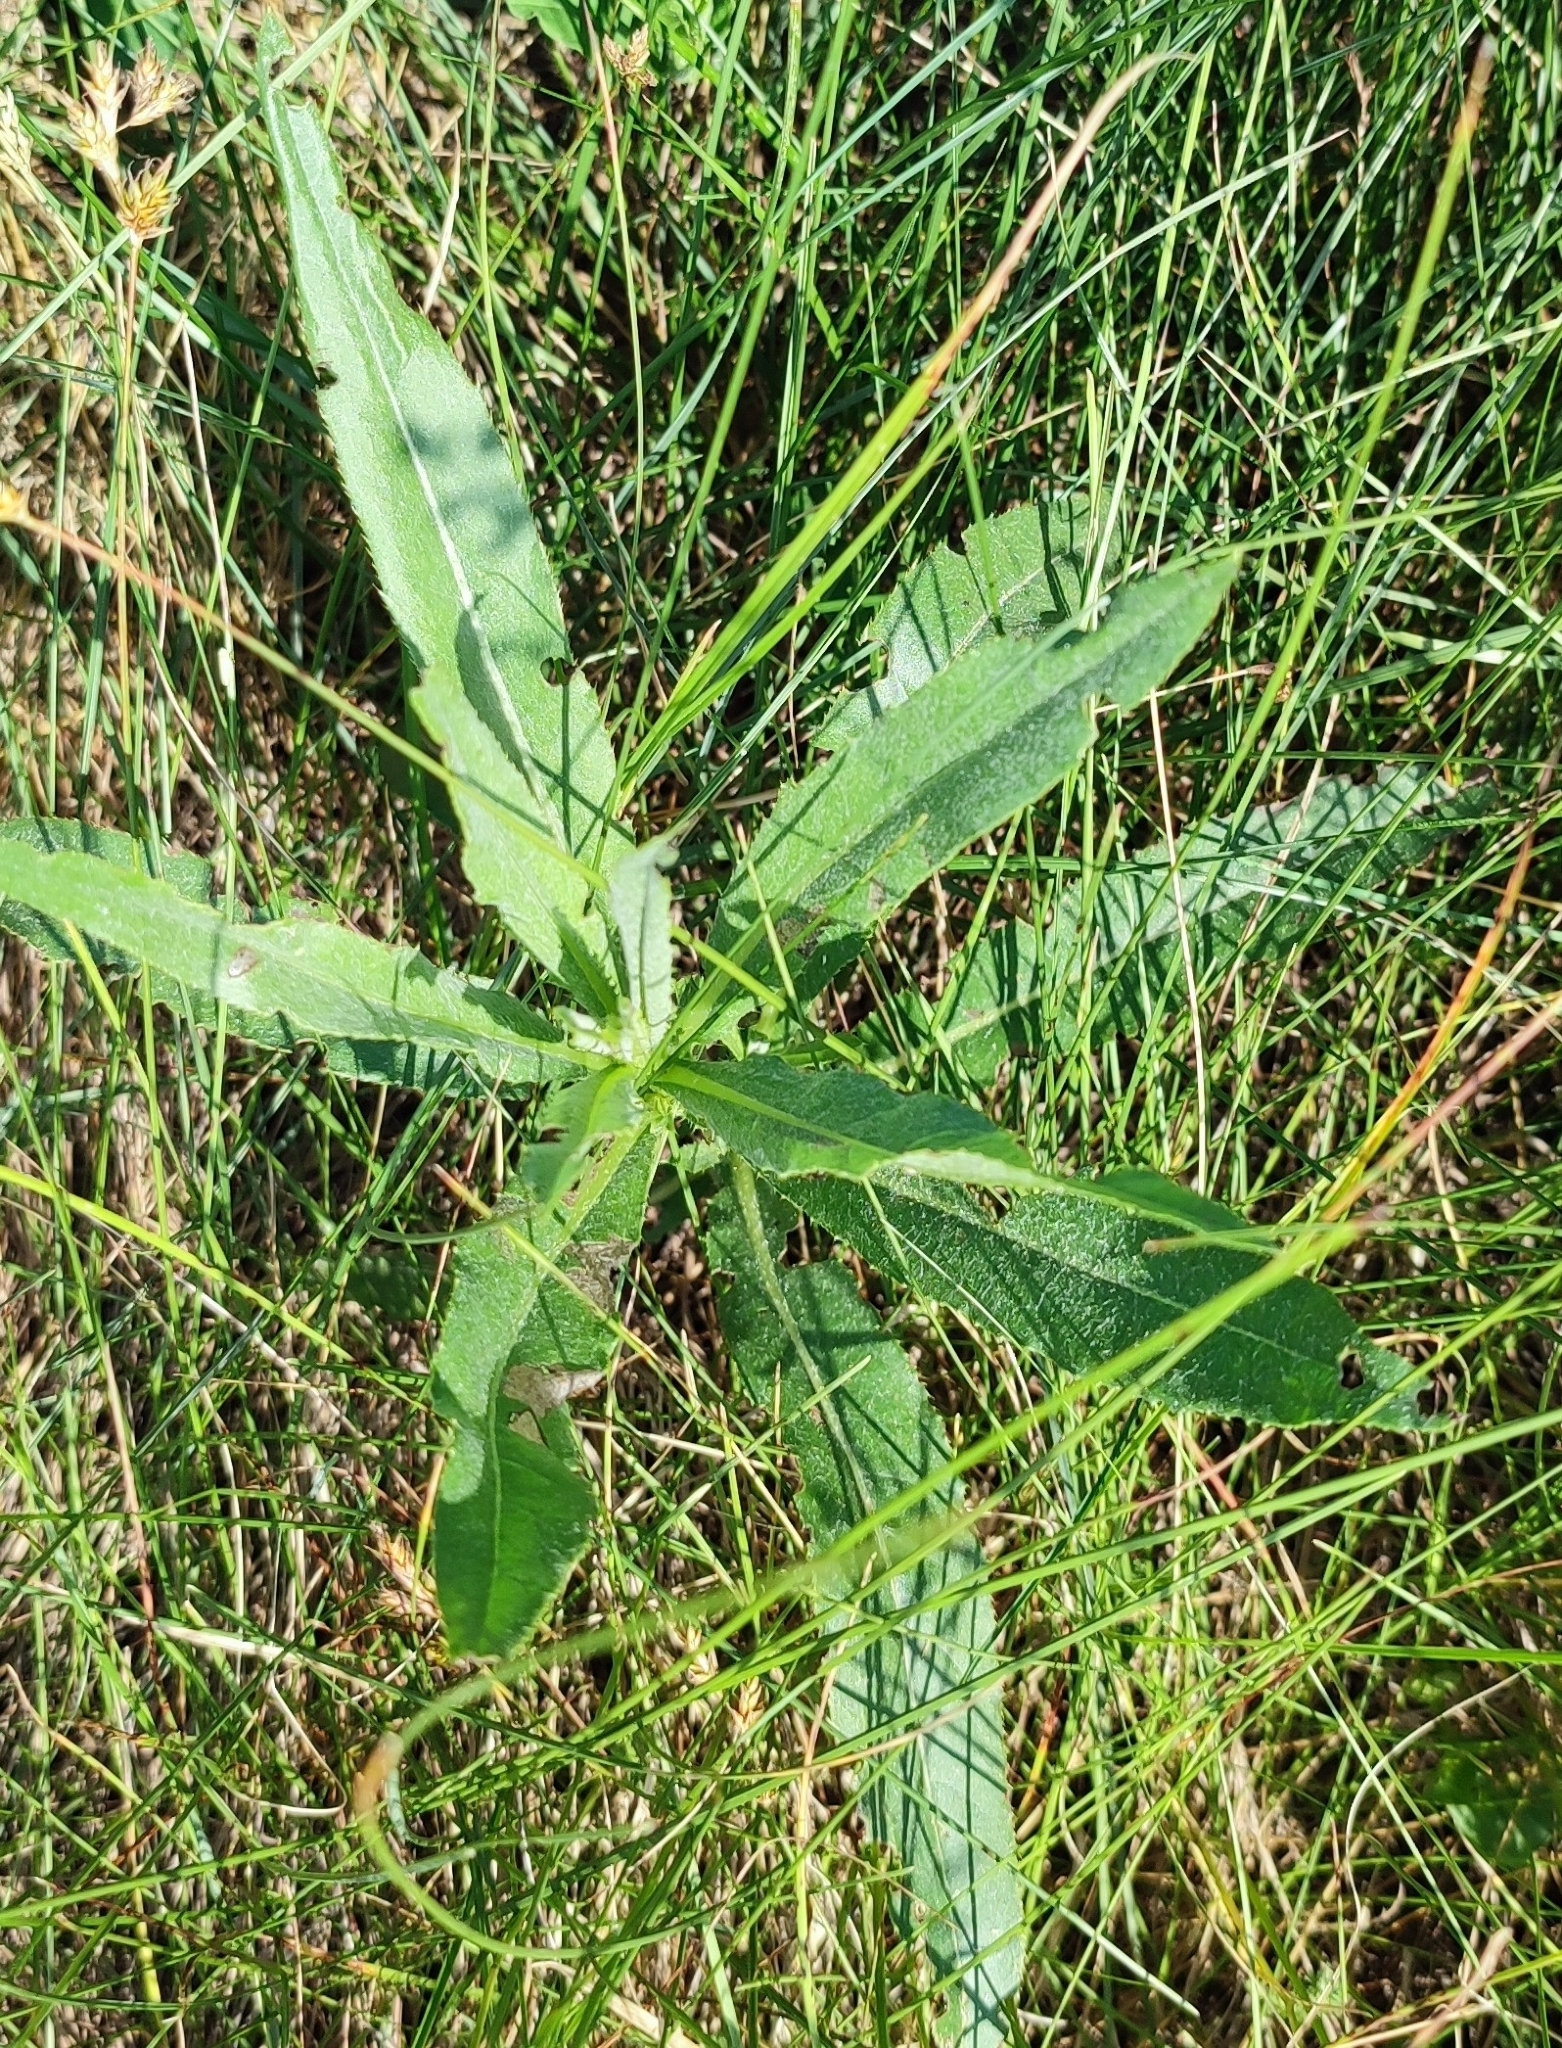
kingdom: Plantae
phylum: Tracheophyta
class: Magnoliopsida
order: Asterales
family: Asteraceae
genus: Cirsium
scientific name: Cirsium arvense
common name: Creeping thistle
